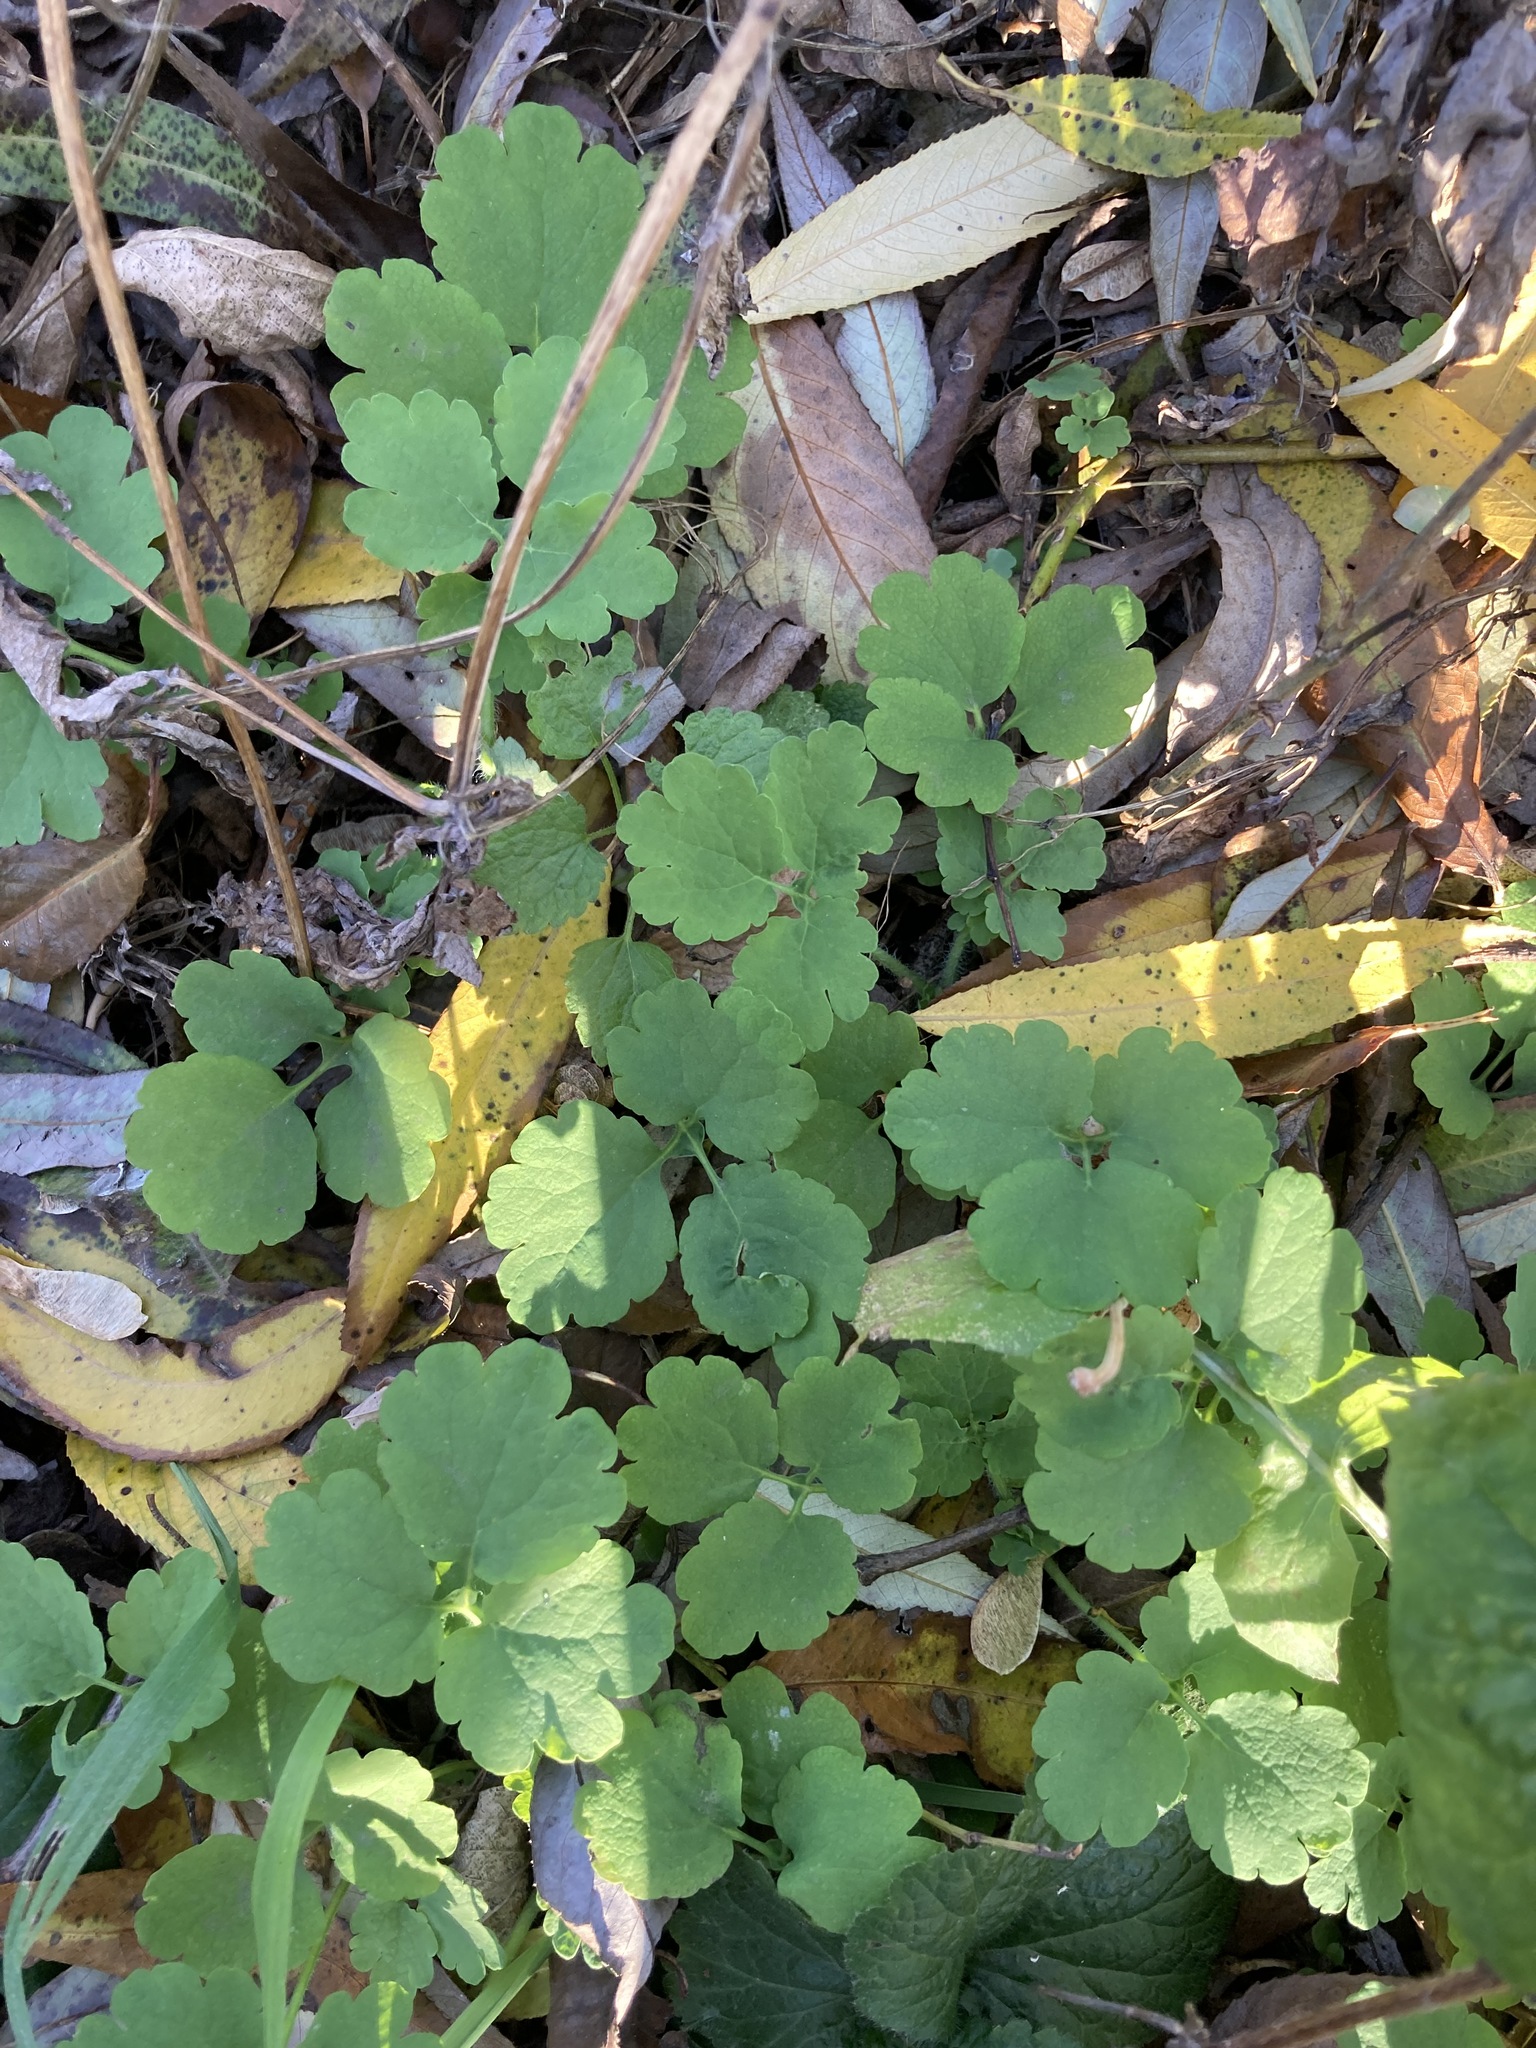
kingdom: Plantae
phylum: Tracheophyta
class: Magnoliopsida
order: Ranunculales
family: Papaveraceae
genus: Chelidonium
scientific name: Chelidonium majus
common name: Greater celandine
